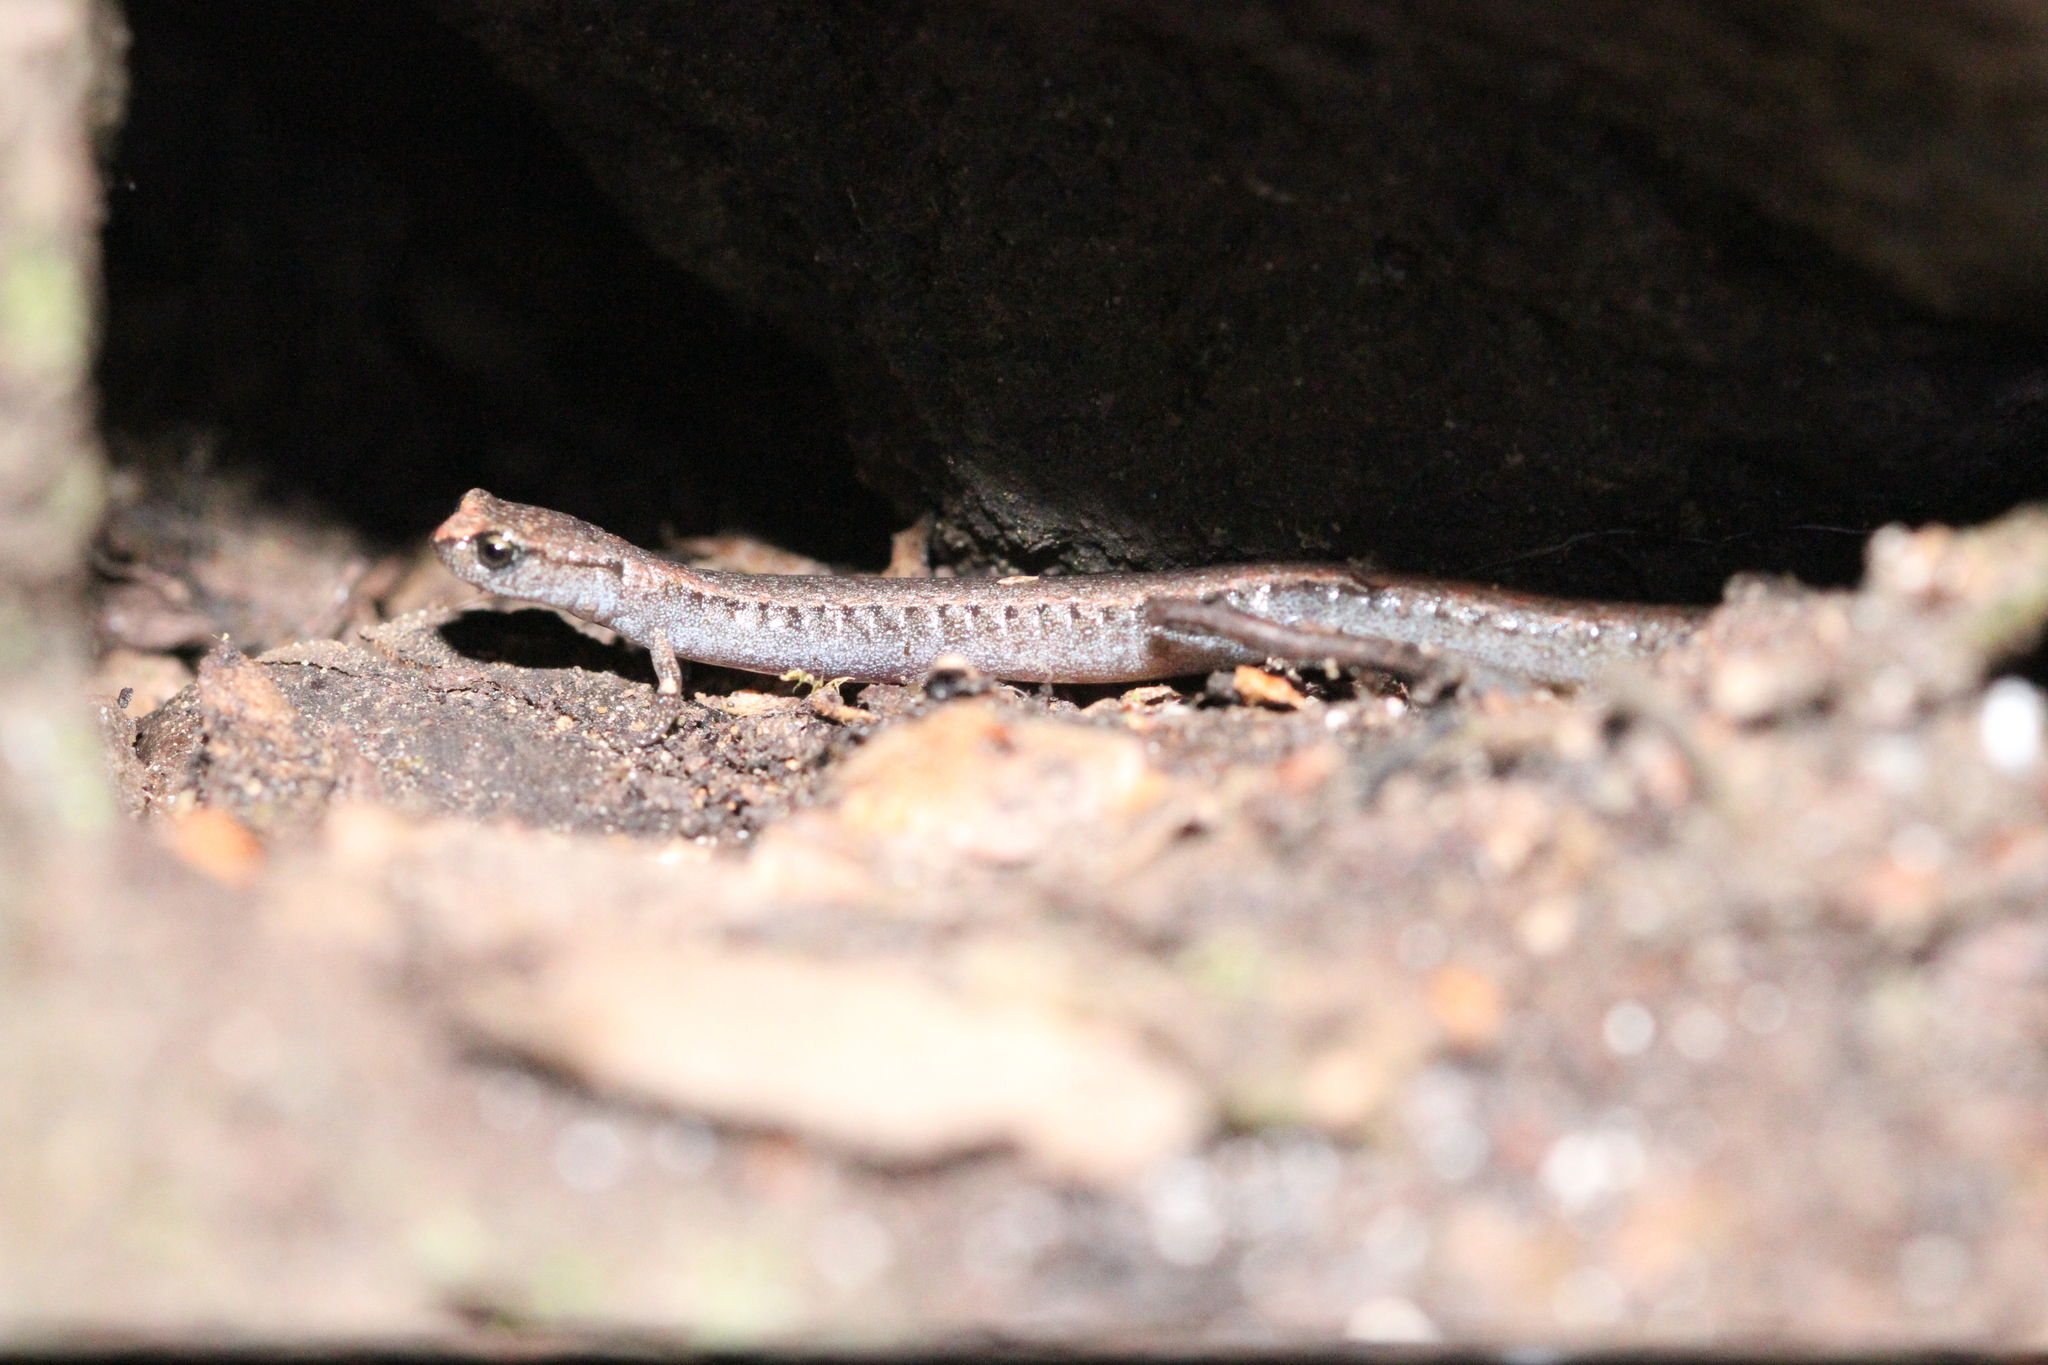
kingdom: Animalia
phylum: Chordata
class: Amphibia
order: Caudata
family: Plethodontidae
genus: Batrachoseps
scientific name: Batrachoseps attenuatus
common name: California slender salamander
